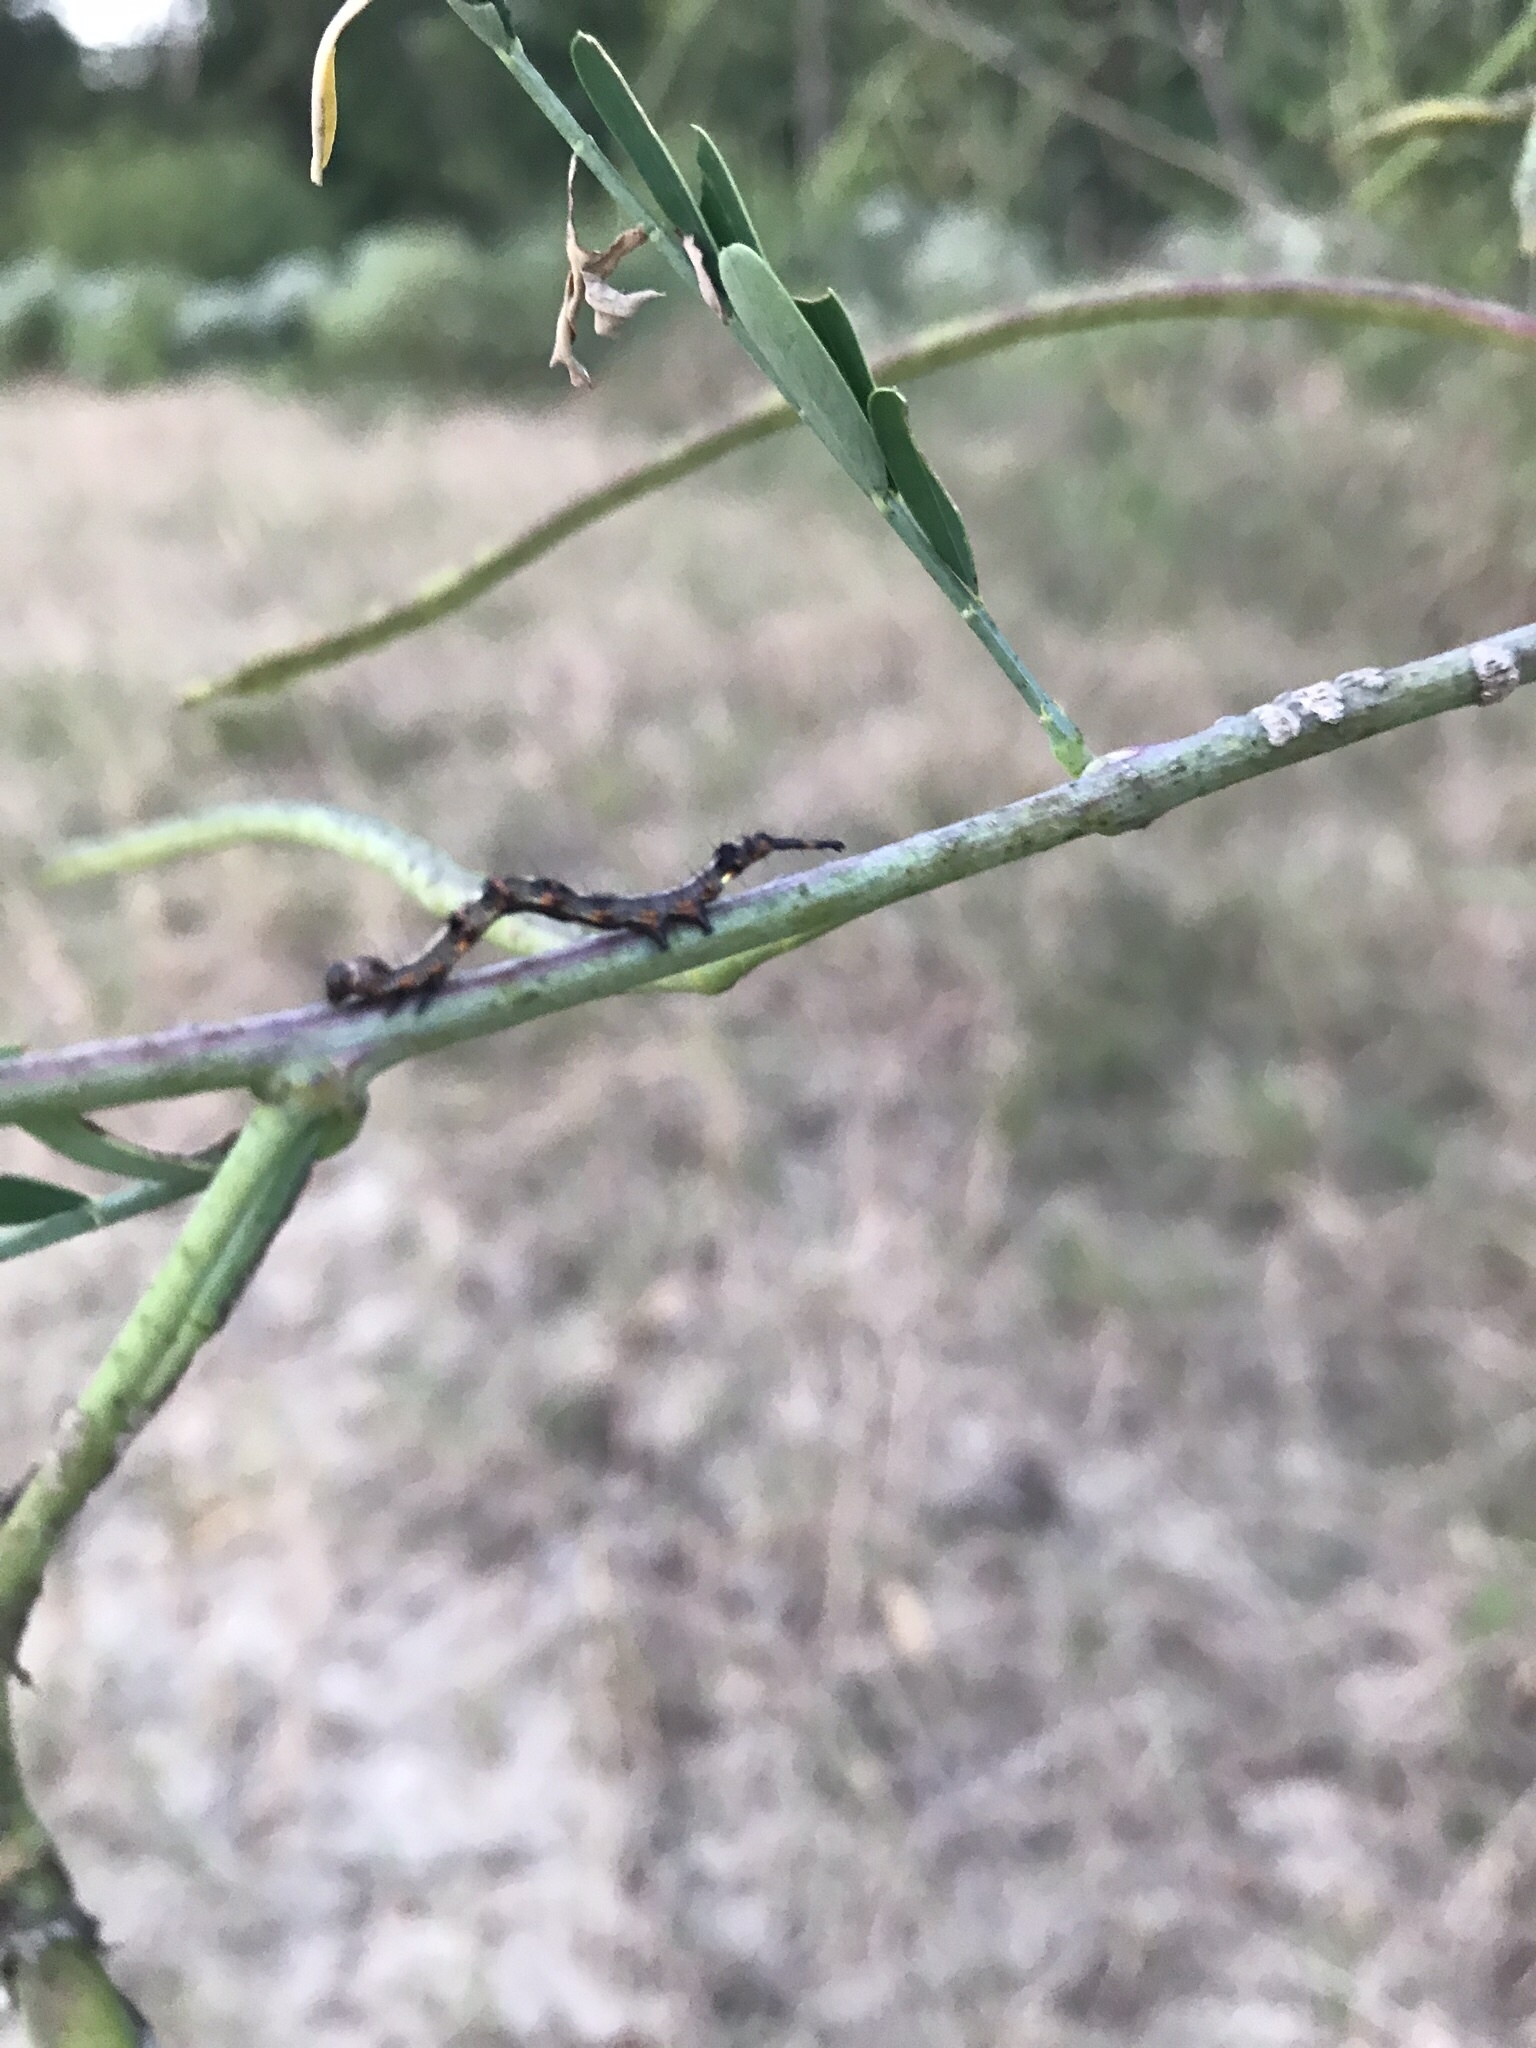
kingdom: Animalia
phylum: Arthropoda
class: Insecta
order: Lepidoptera
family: Erebidae
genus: Selenisa
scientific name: Selenisa sueroides
